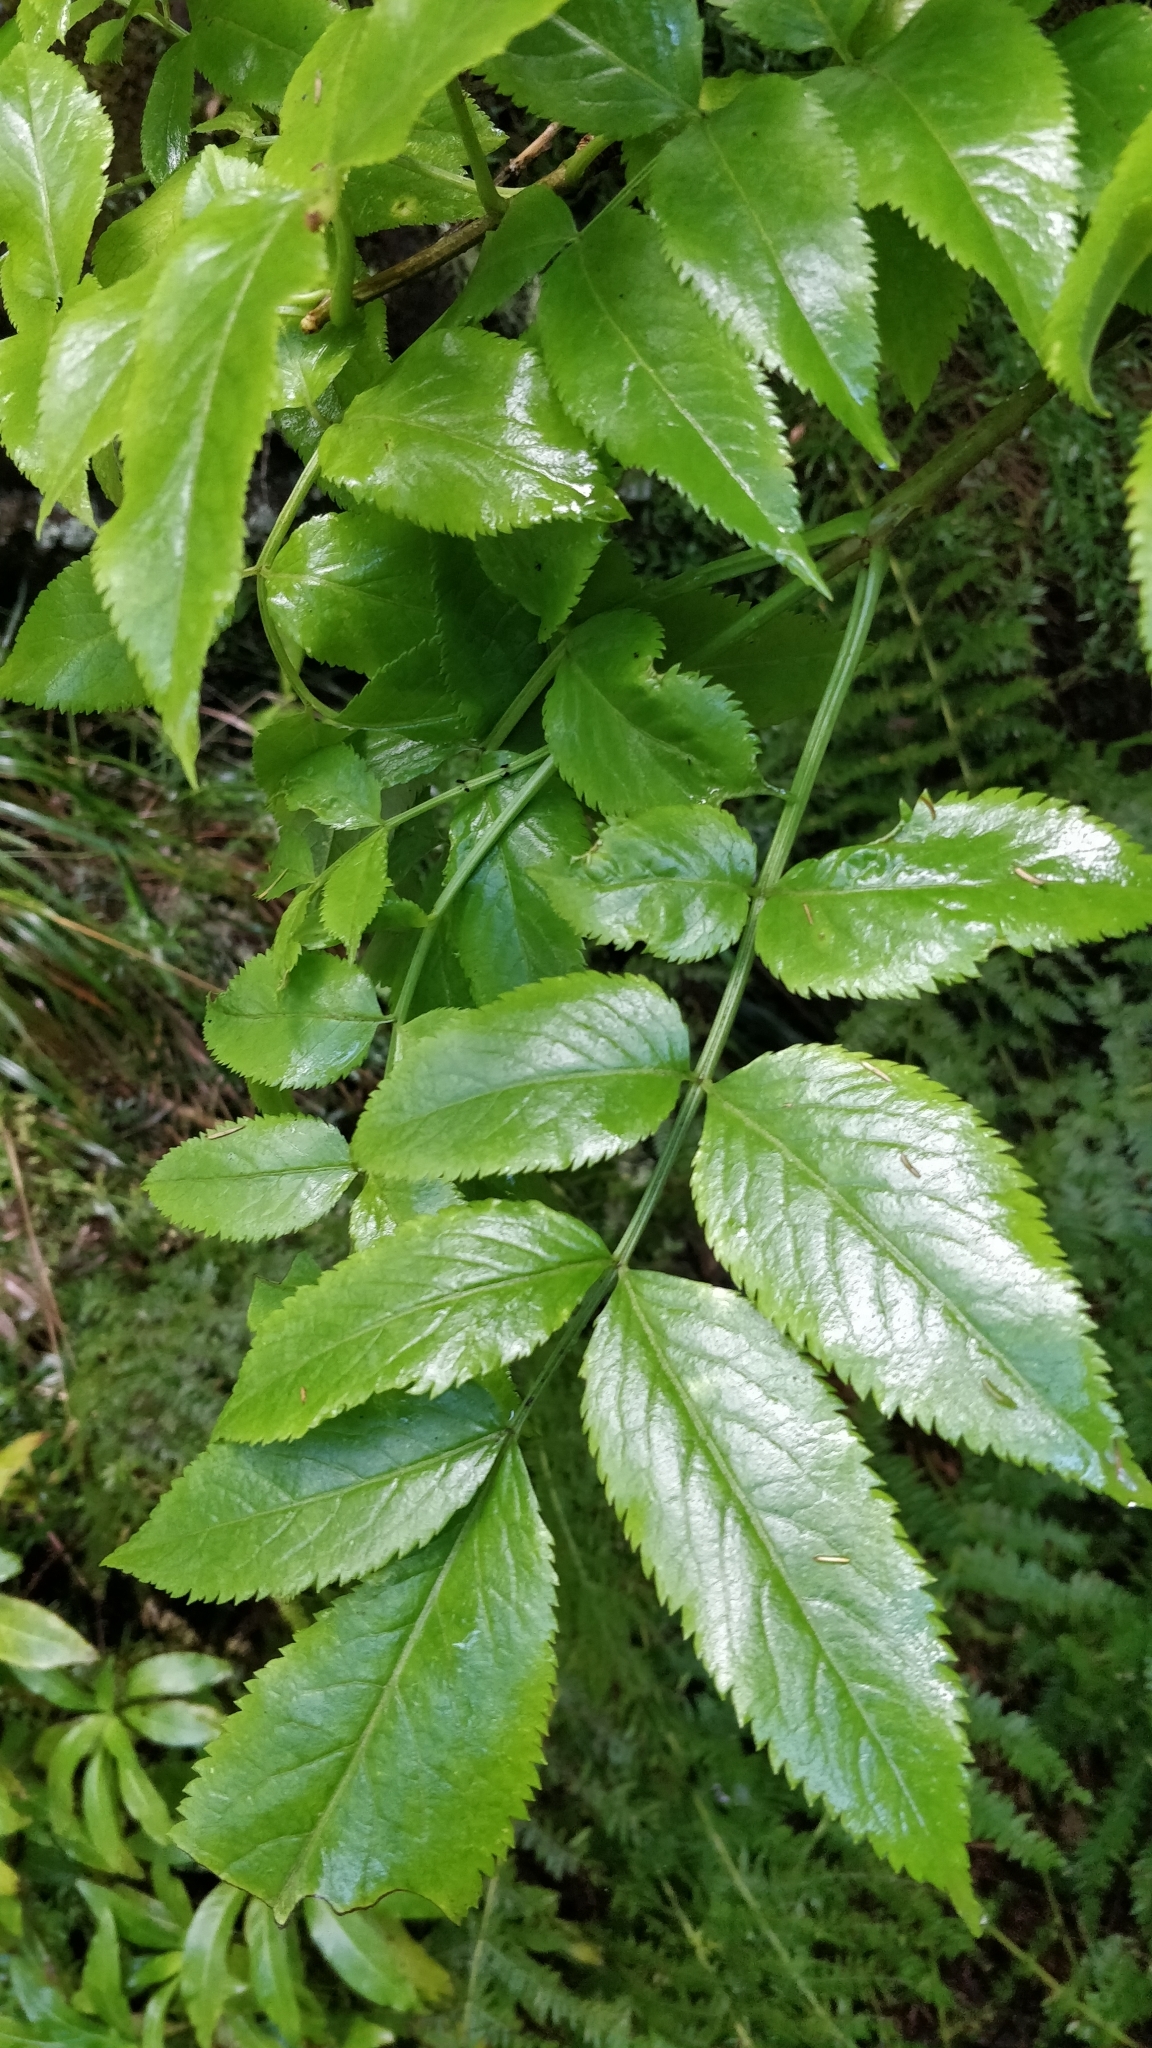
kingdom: Plantae
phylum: Tracheophyta
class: Magnoliopsida
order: Dipsacales
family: Viburnaceae
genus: Sambucus
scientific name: Sambucus lanceolata
